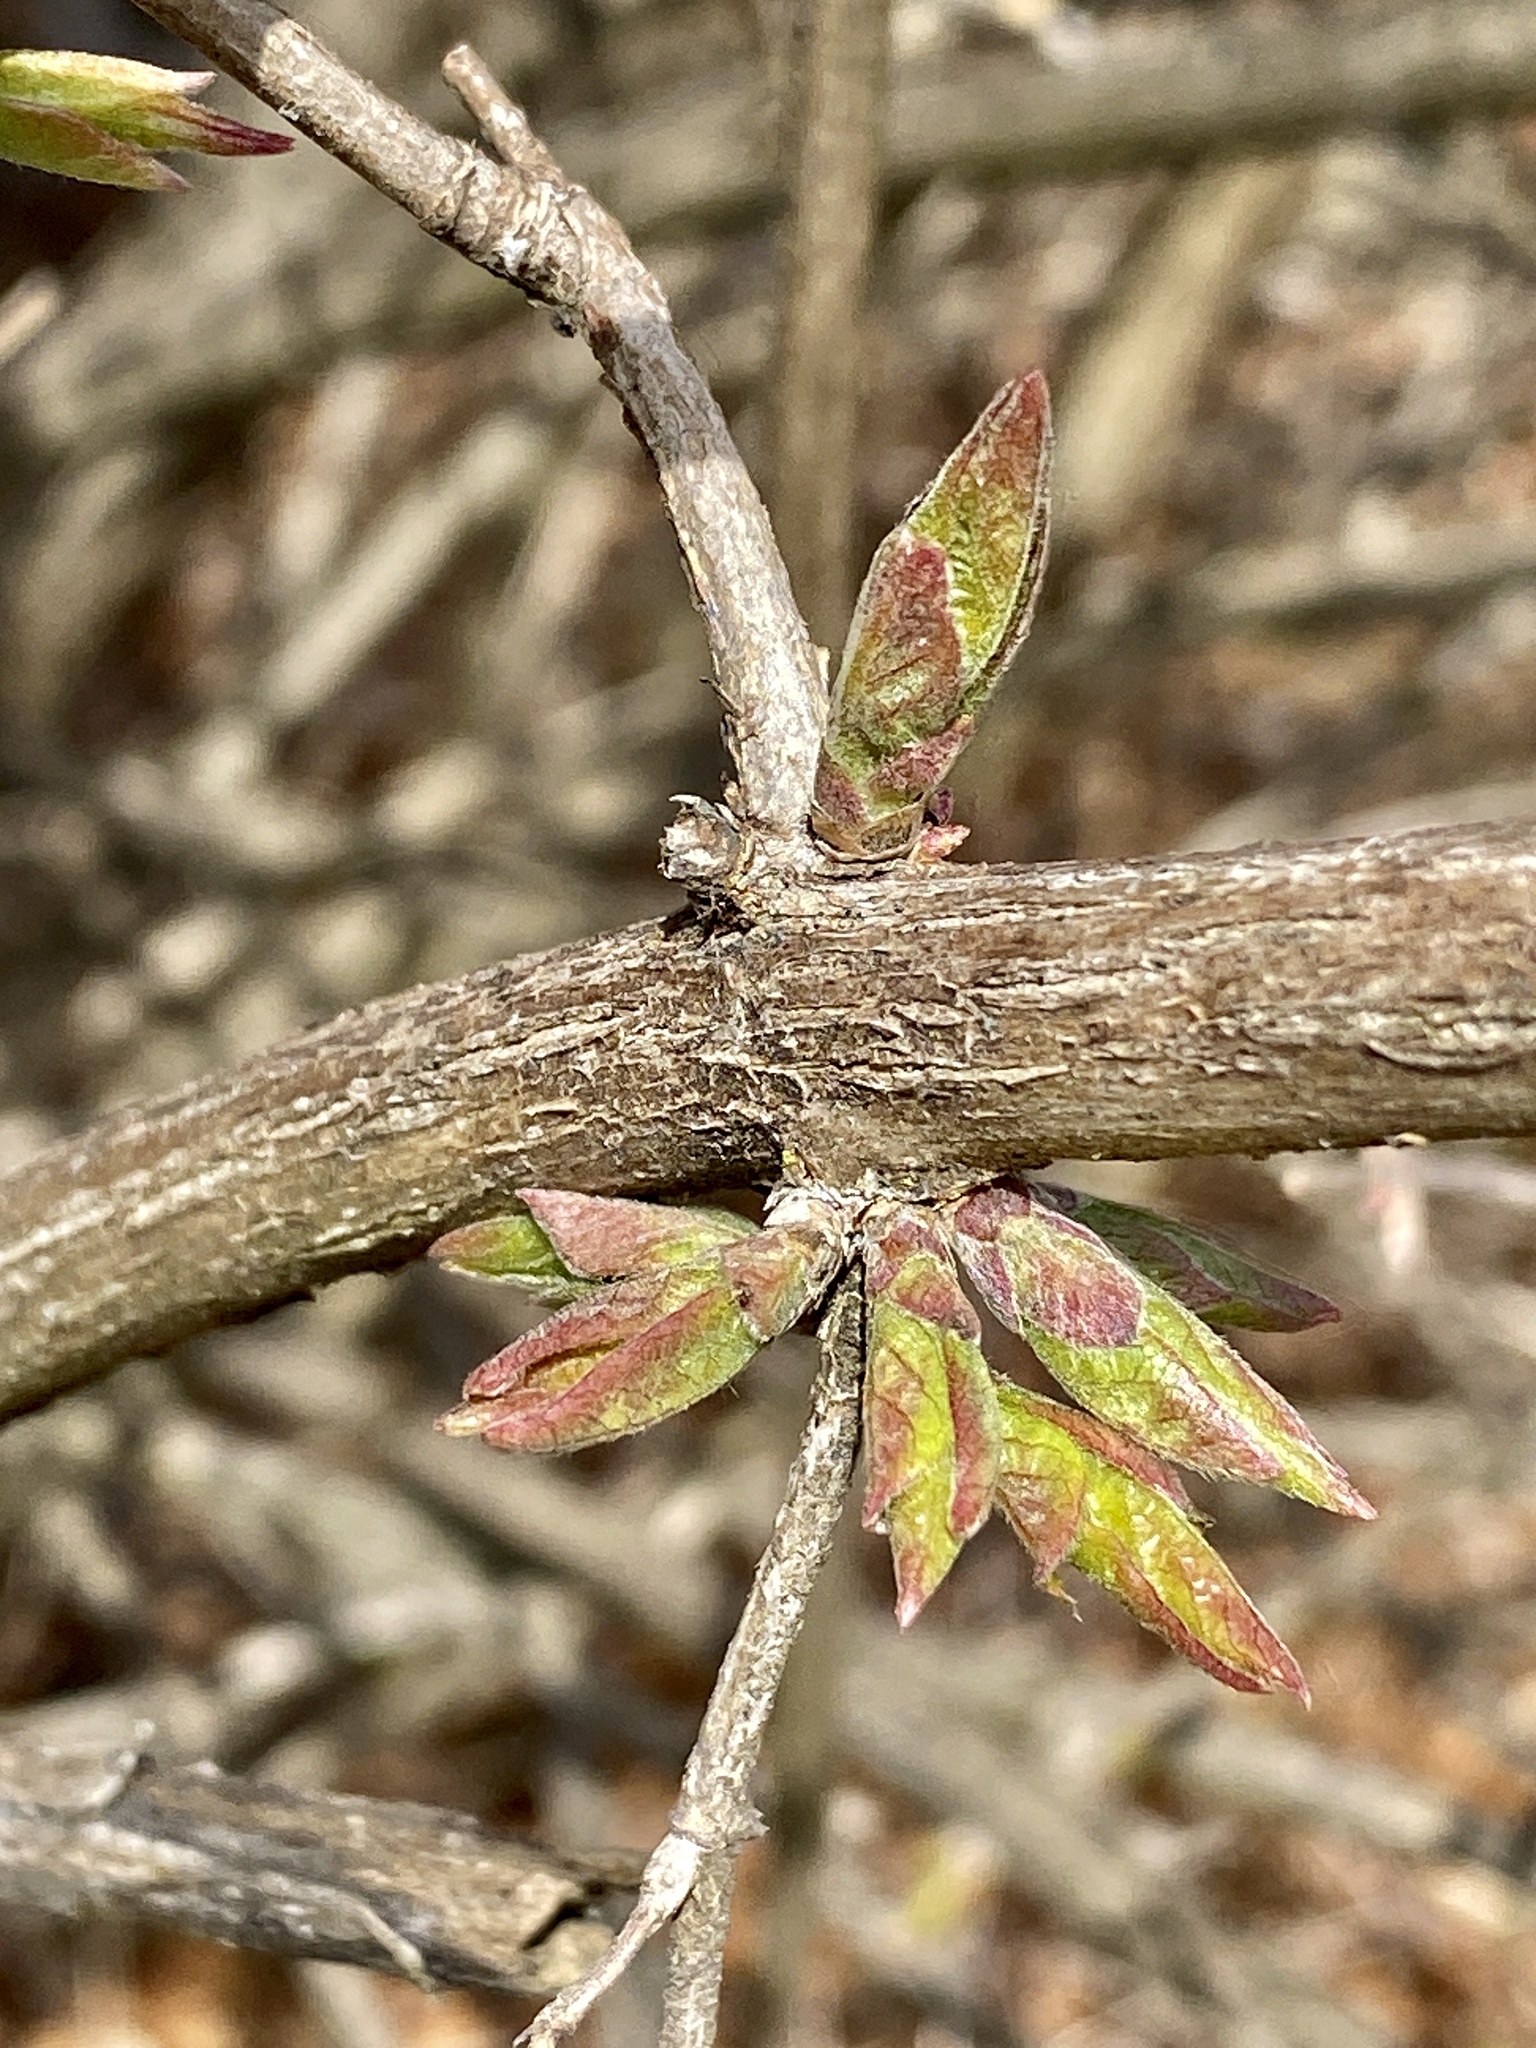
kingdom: Plantae
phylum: Tracheophyta
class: Magnoliopsida
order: Dipsacales
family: Caprifoliaceae
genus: Lonicera
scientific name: Lonicera maackii
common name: Amur honeysuckle
